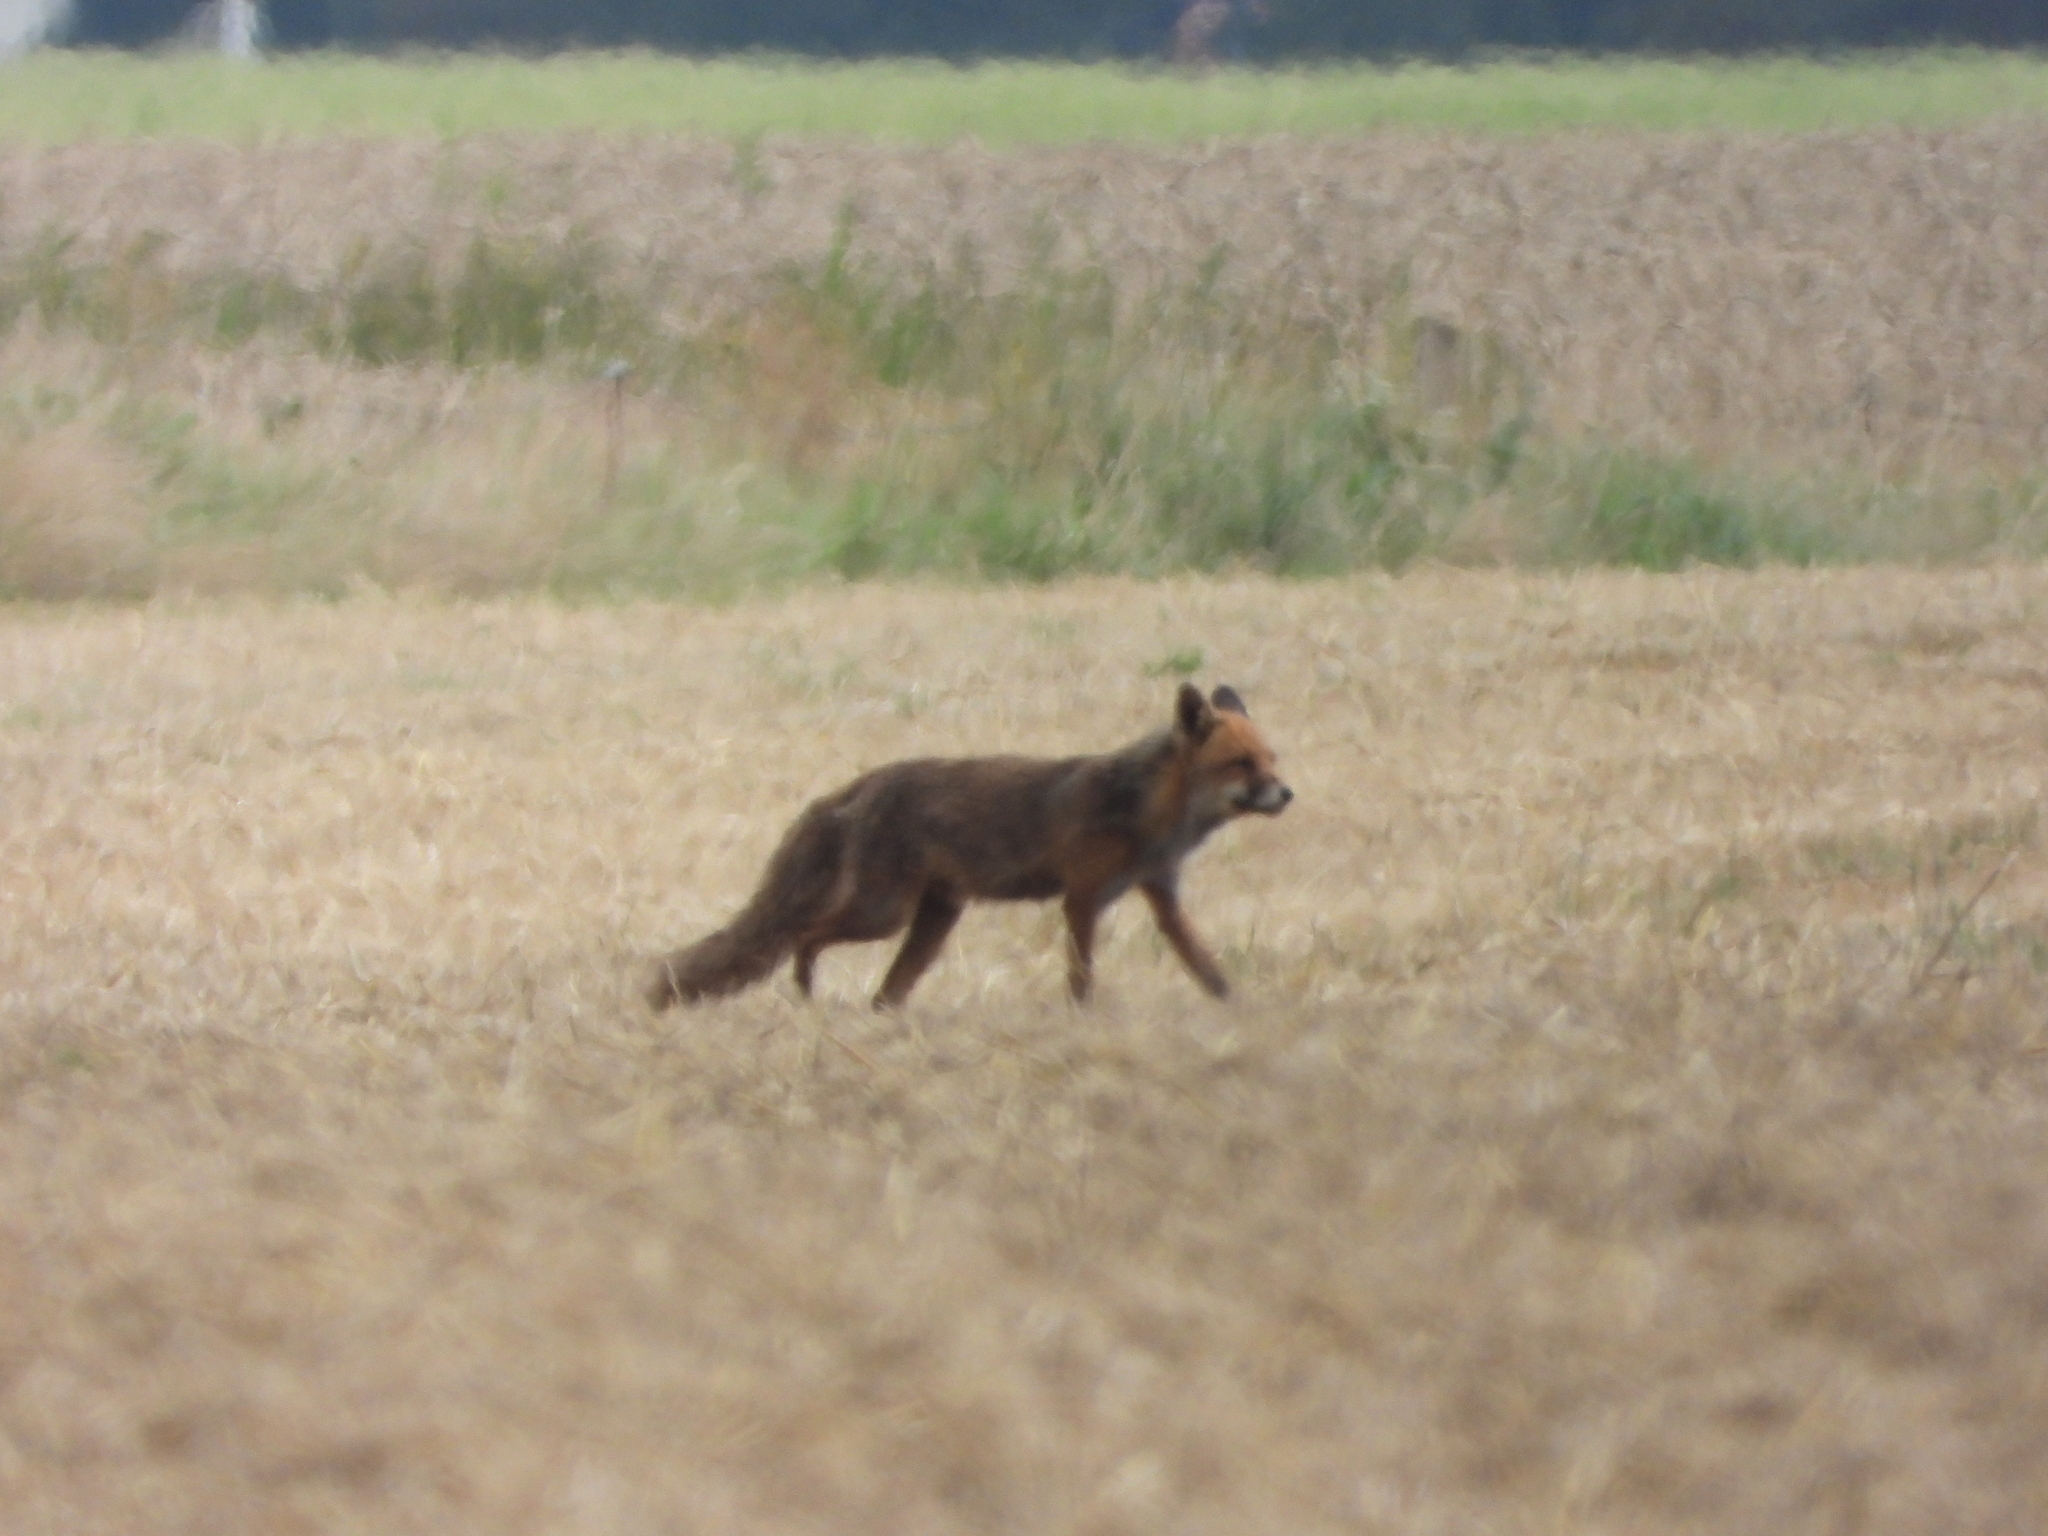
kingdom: Animalia
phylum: Chordata
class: Mammalia
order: Carnivora
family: Canidae
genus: Vulpes
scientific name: Vulpes vulpes
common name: Red fox
